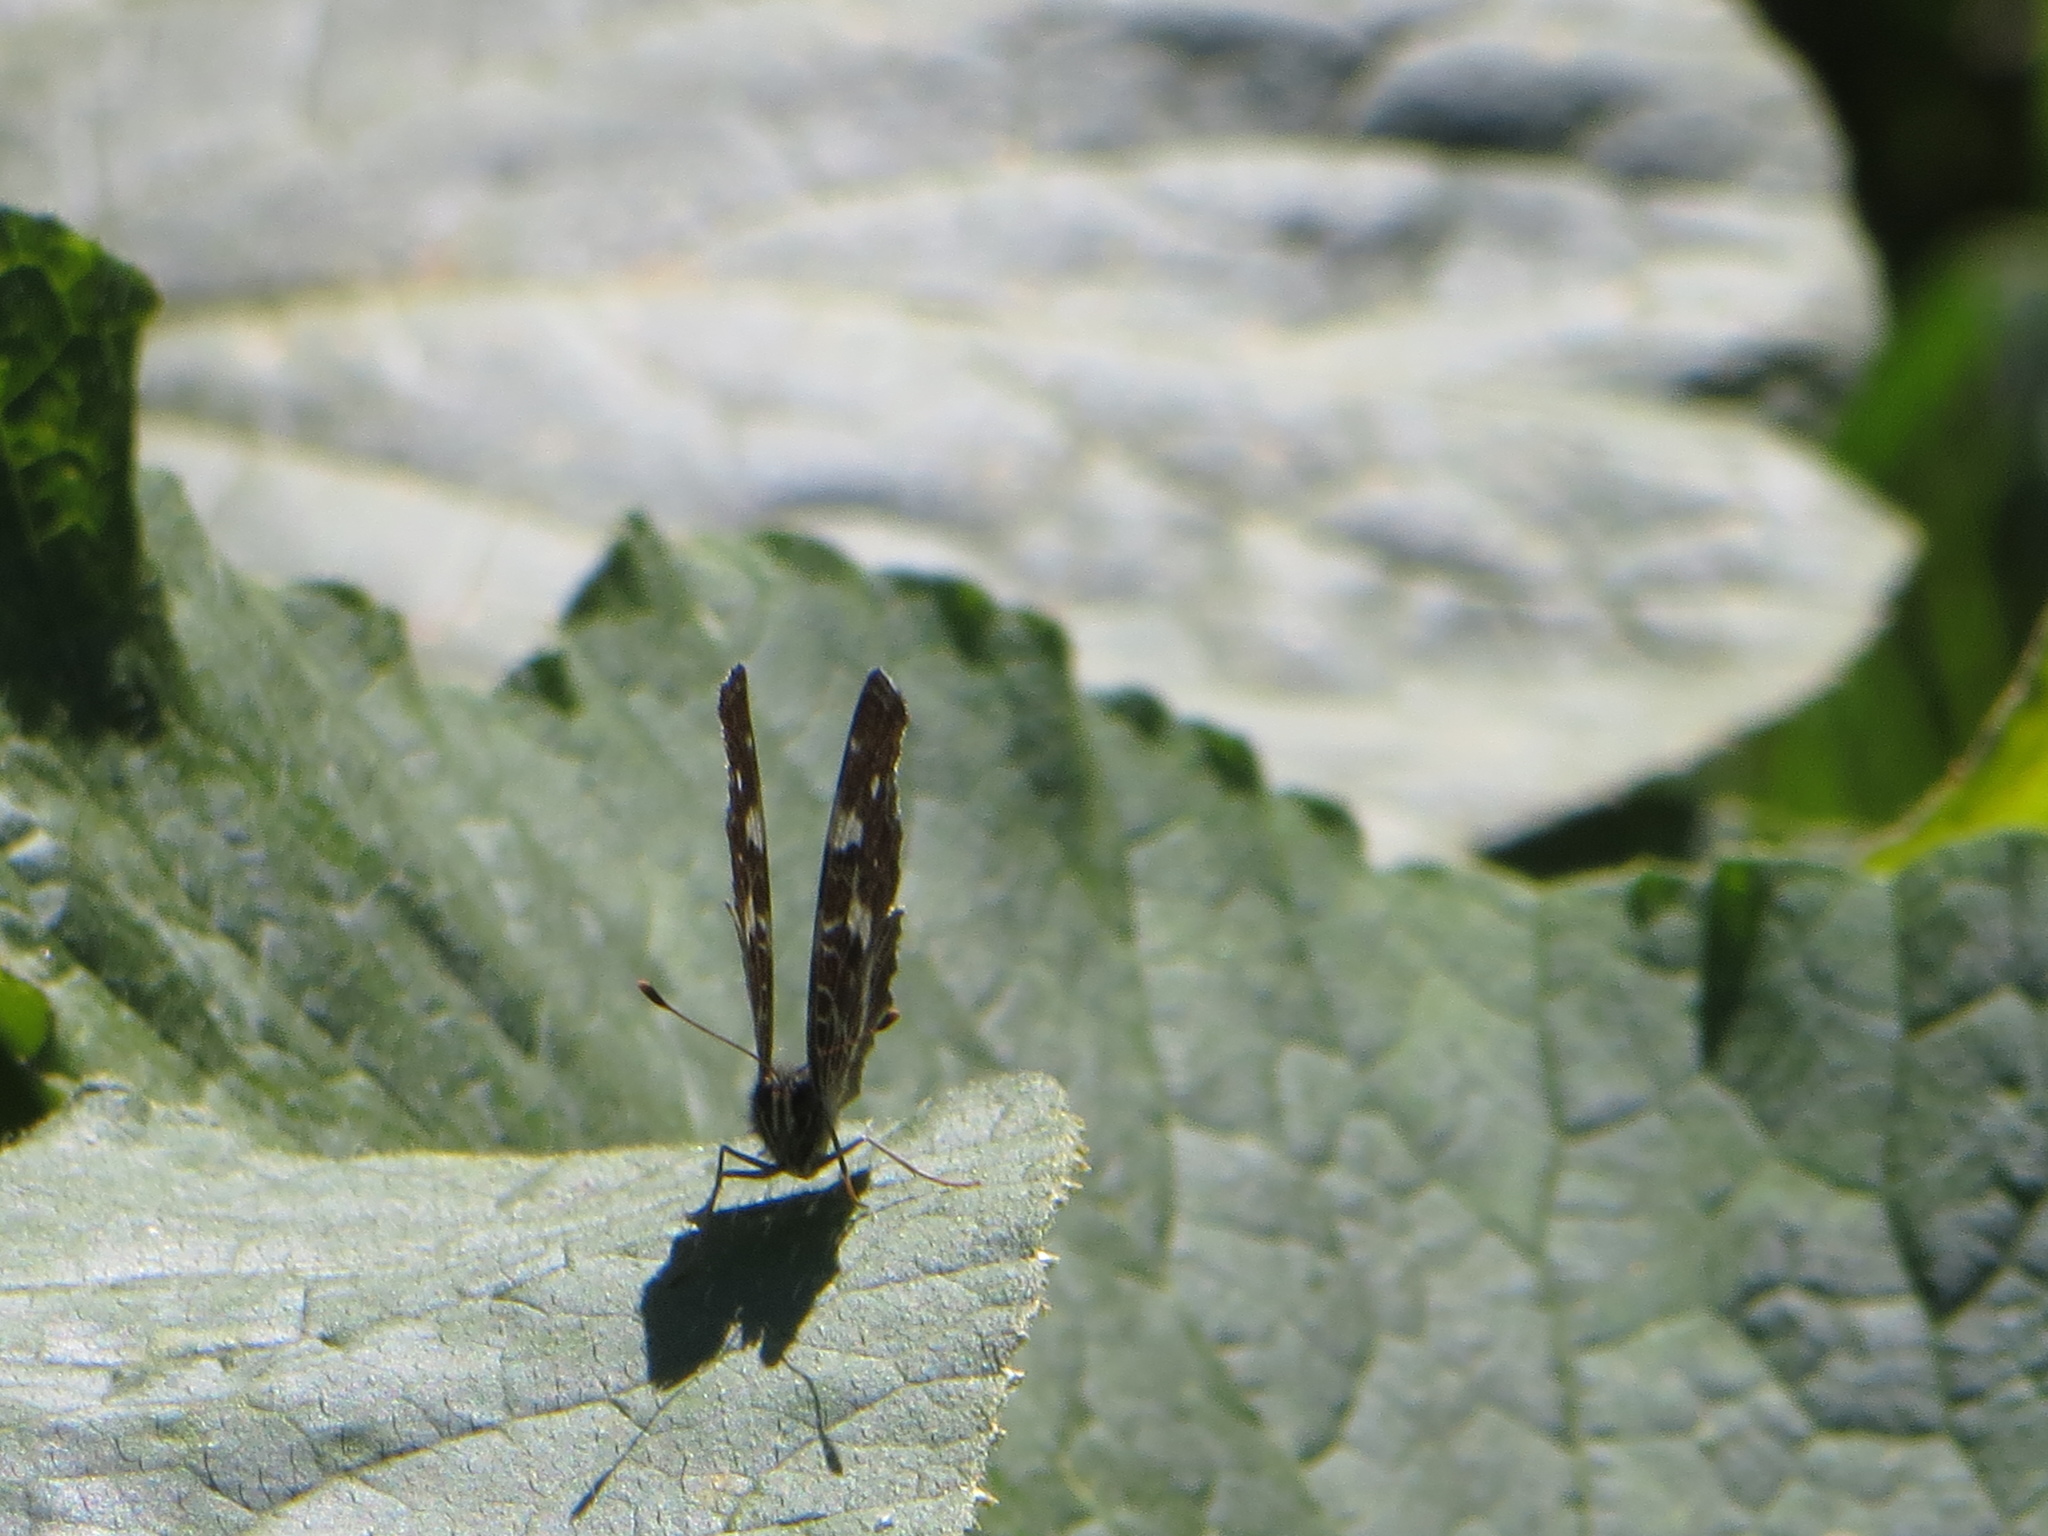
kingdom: Animalia
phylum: Arthropoda
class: Insecta
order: Lepidoptera
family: Nymphalidae
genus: Araschnia
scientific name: Araschnia levana
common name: Map butterfly
